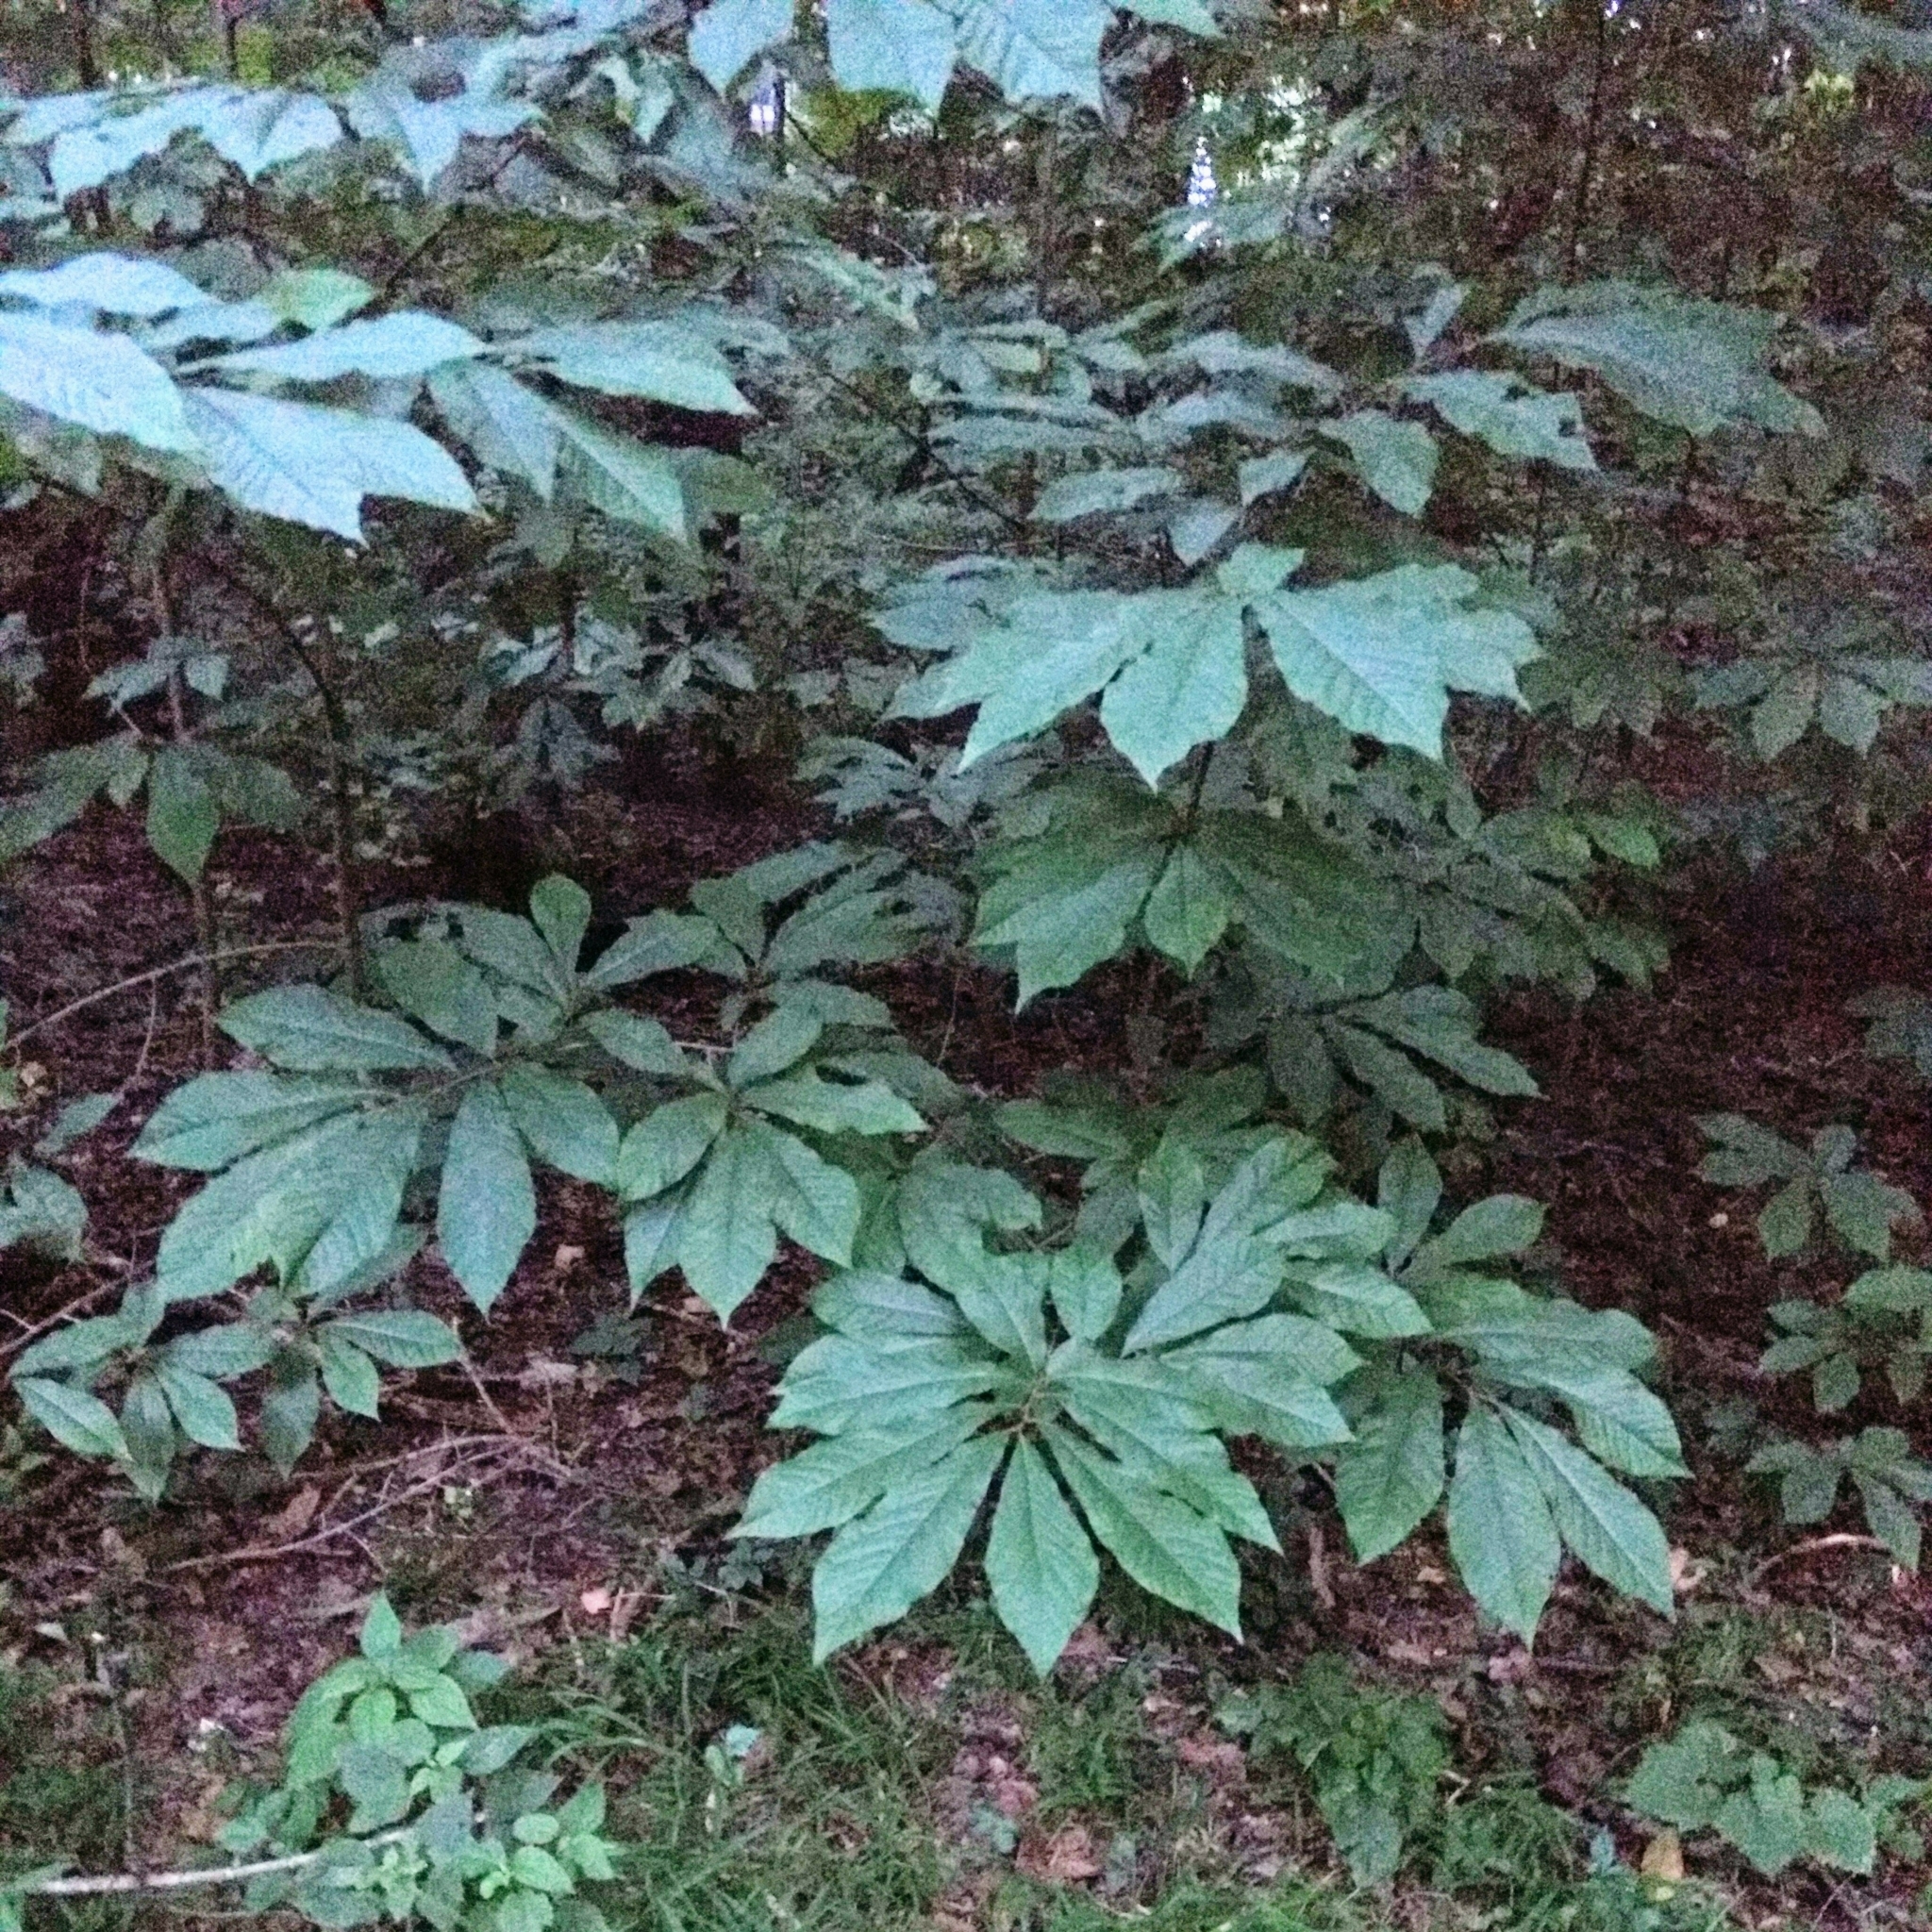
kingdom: Plantae
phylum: Tracheophyta
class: Magnoliopsida
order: Magnoliales
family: Annonaceae
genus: Asimina
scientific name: Asimina triloba
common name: Dog-banana
